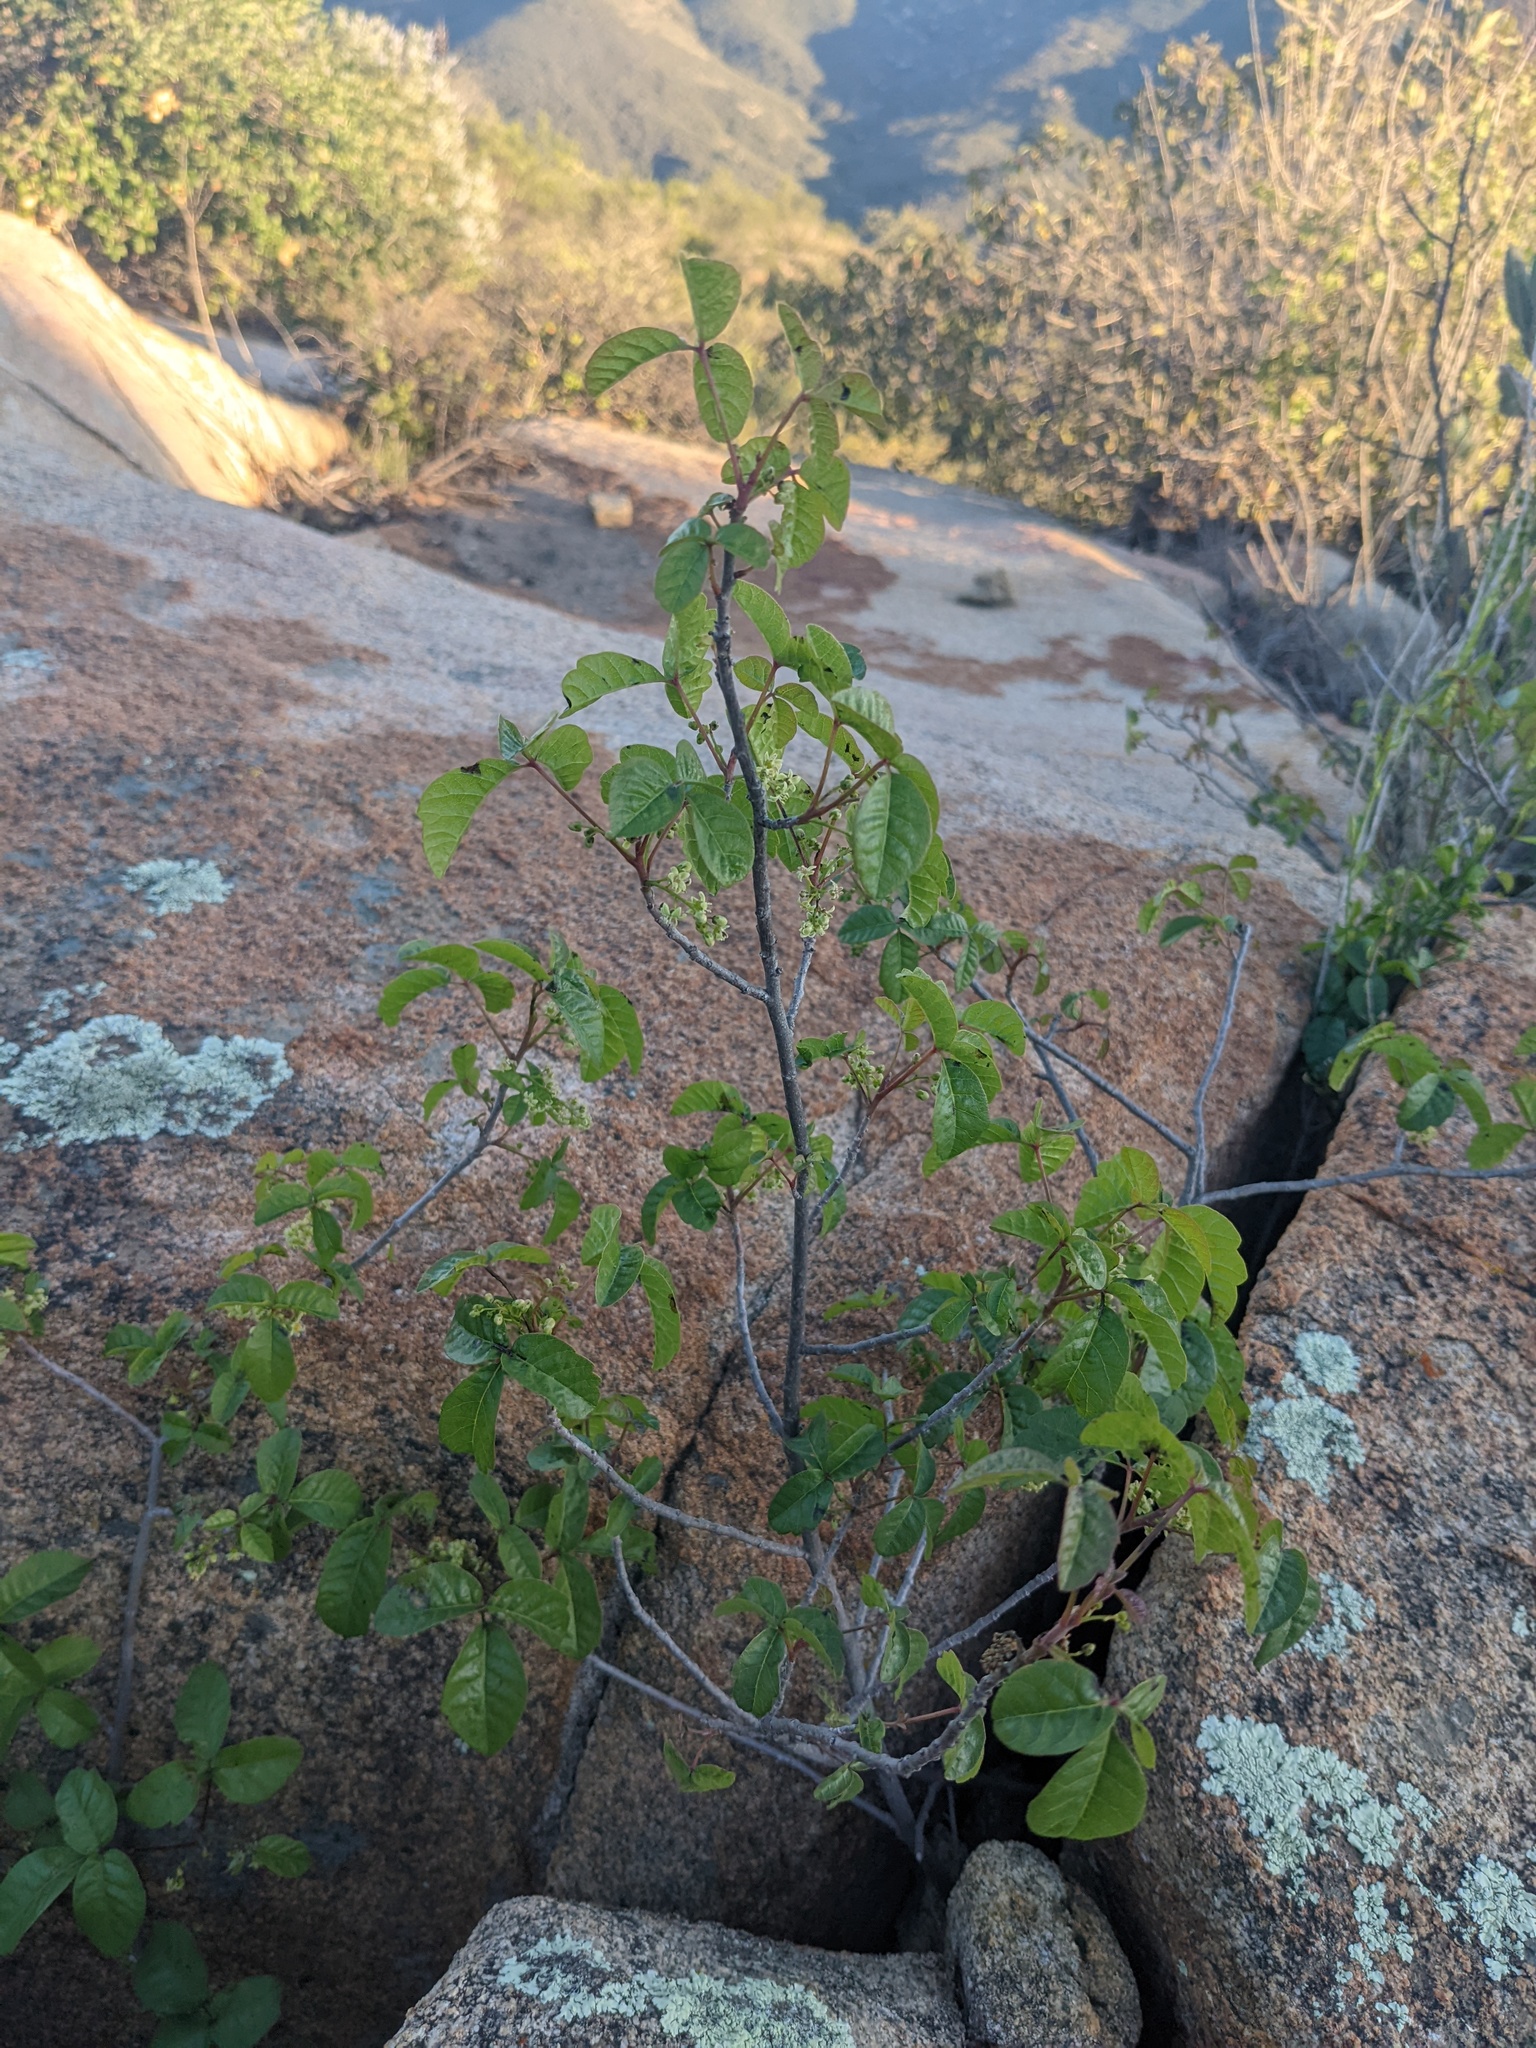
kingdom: Plantae
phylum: Tracheophyta
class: Magnoliopsida
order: Sapindales
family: Anacardiaceae
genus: Toxicodendron
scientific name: Toxicodendron diversilobum
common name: Pacific poison-oak
